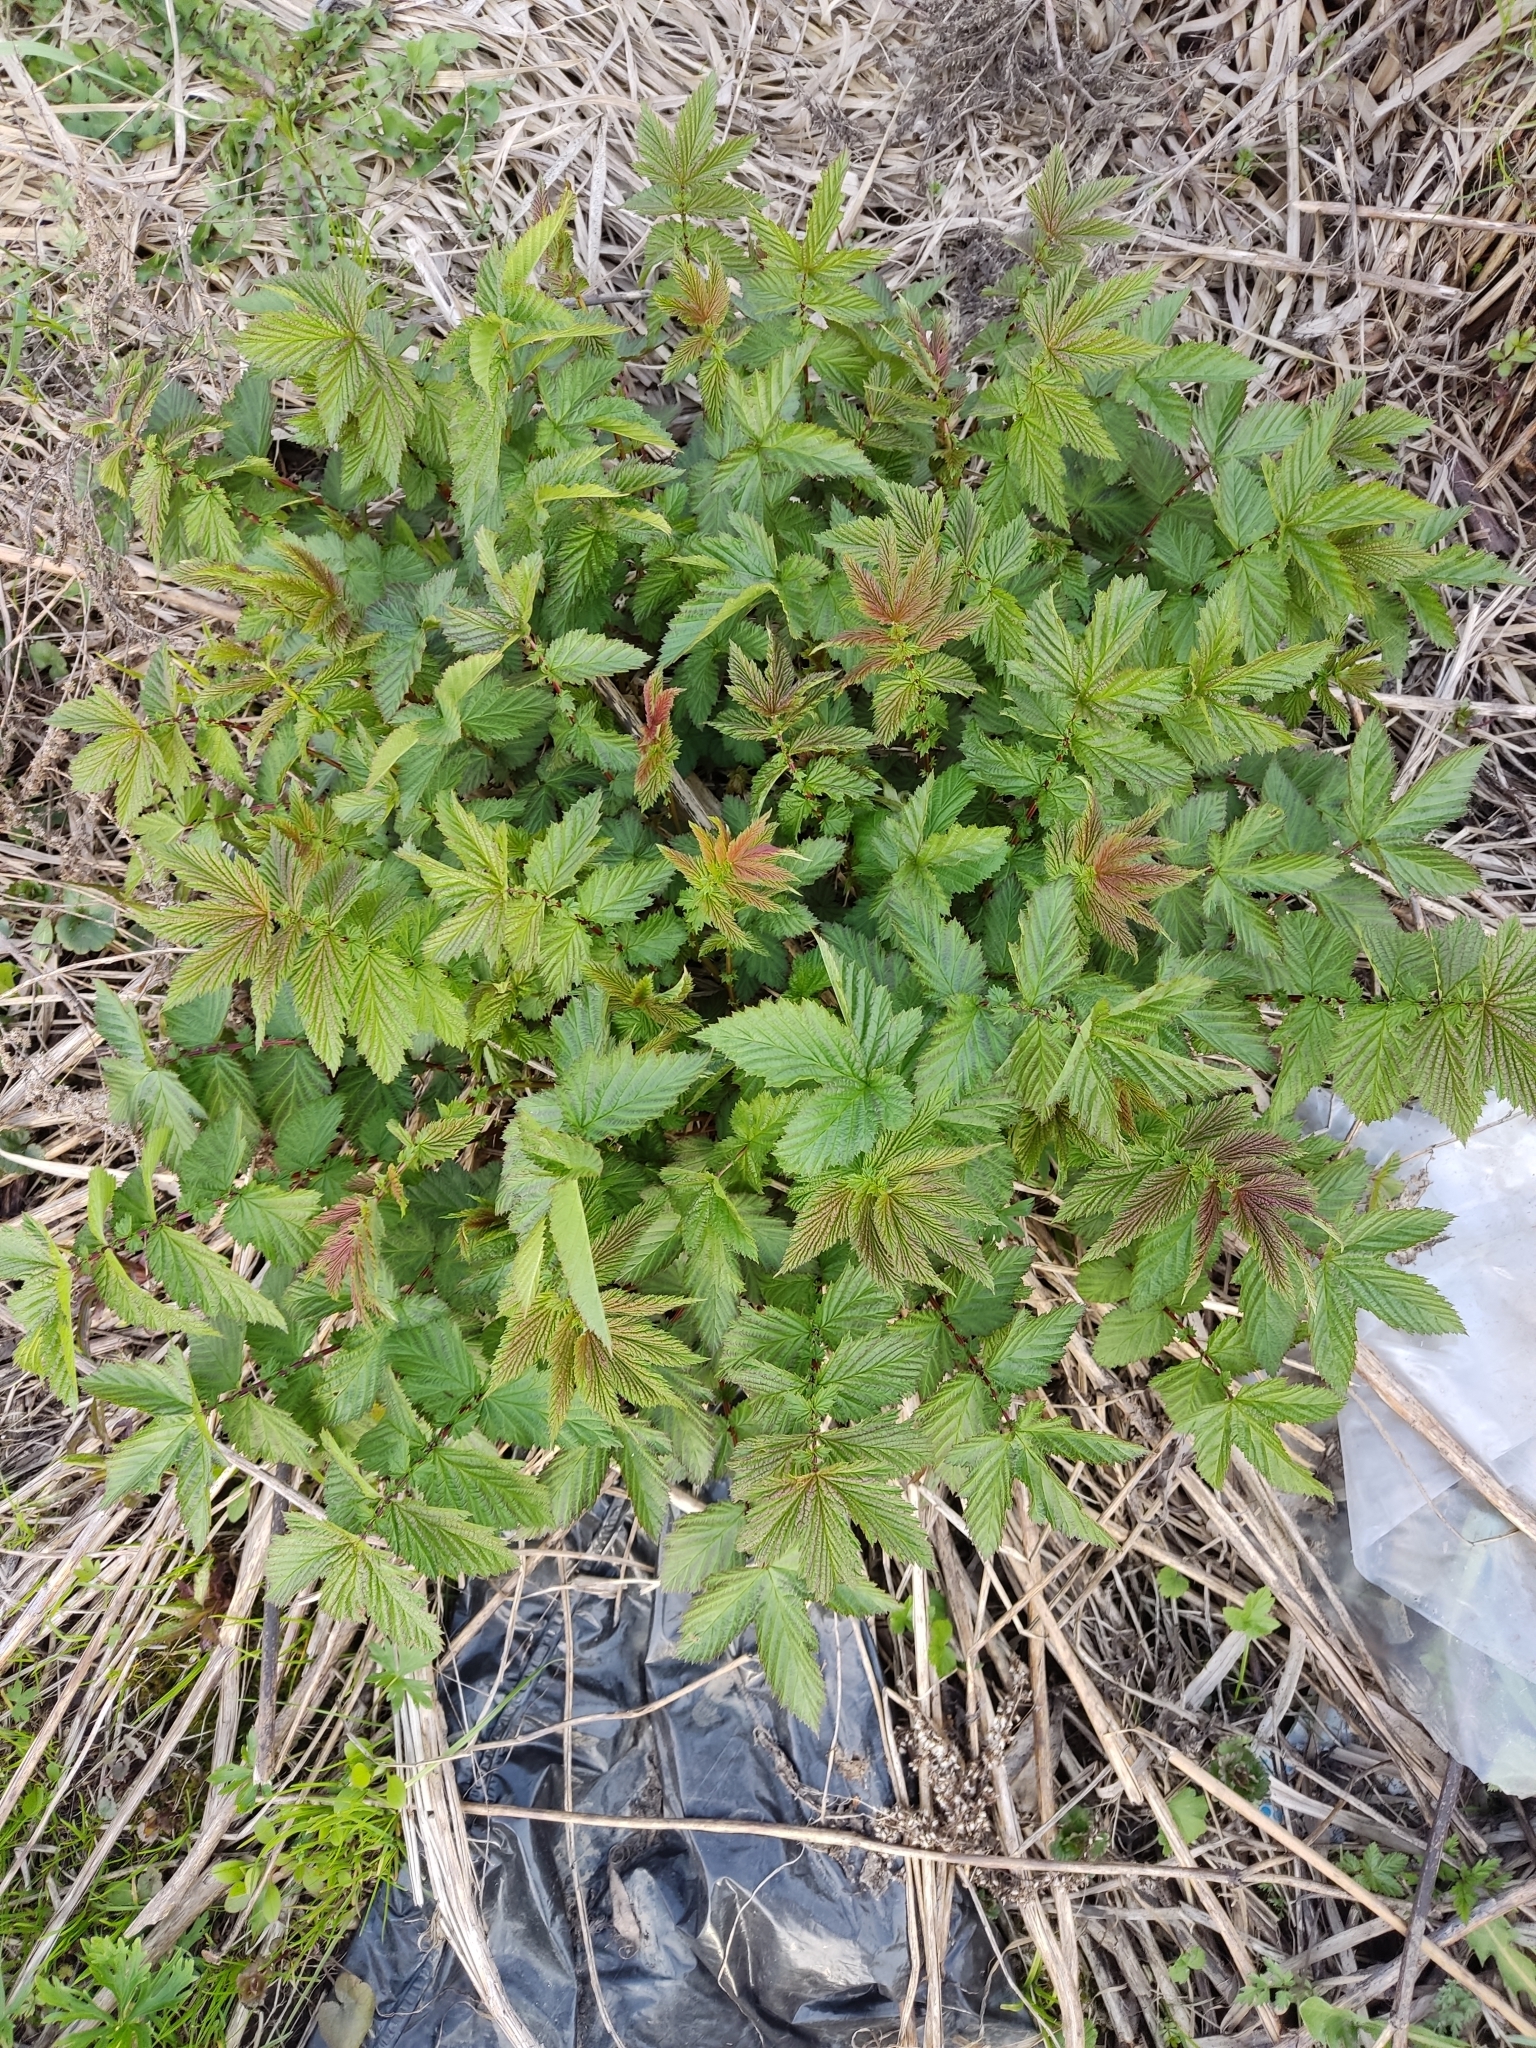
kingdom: Plantae
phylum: Tracheophyta
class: Magnoliopsida
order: Rosales
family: Rosaceae
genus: Filipendula
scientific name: Filipendula ulmaria
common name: Meadowsweet
